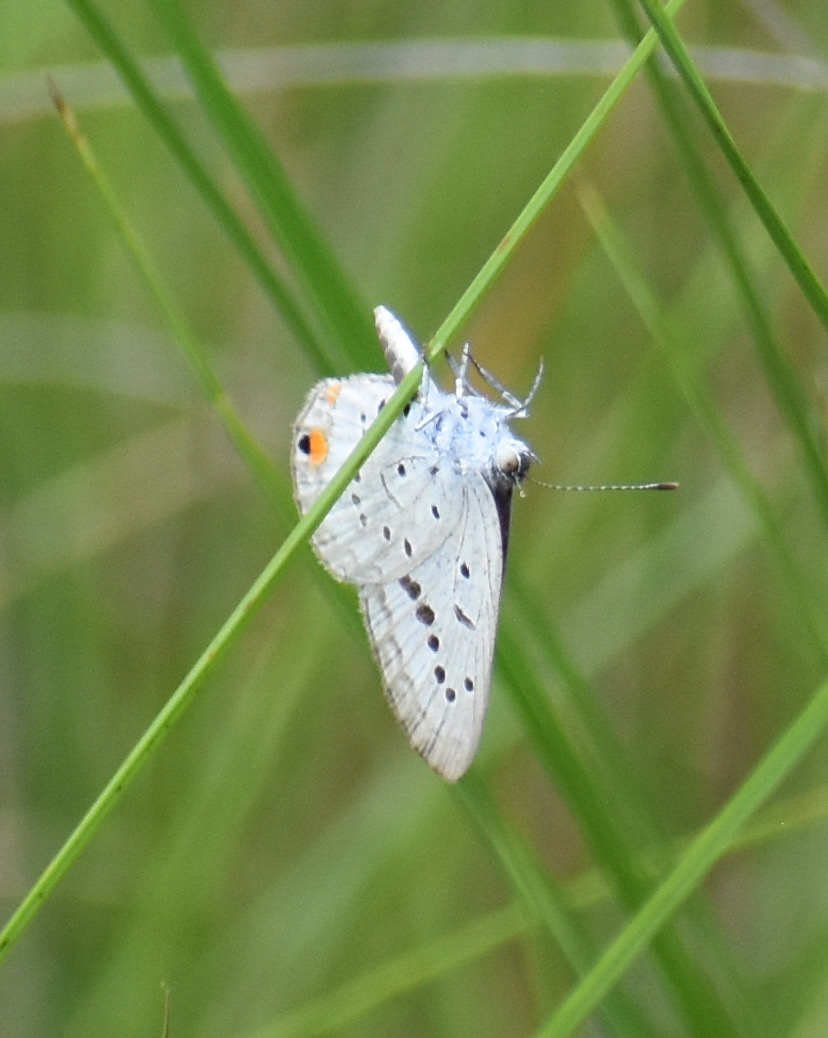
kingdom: Animalia
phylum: Arthropoda
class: Insecta
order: Lepidoptera
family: Lycaenidae
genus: Cupido
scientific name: Cupido cissus
